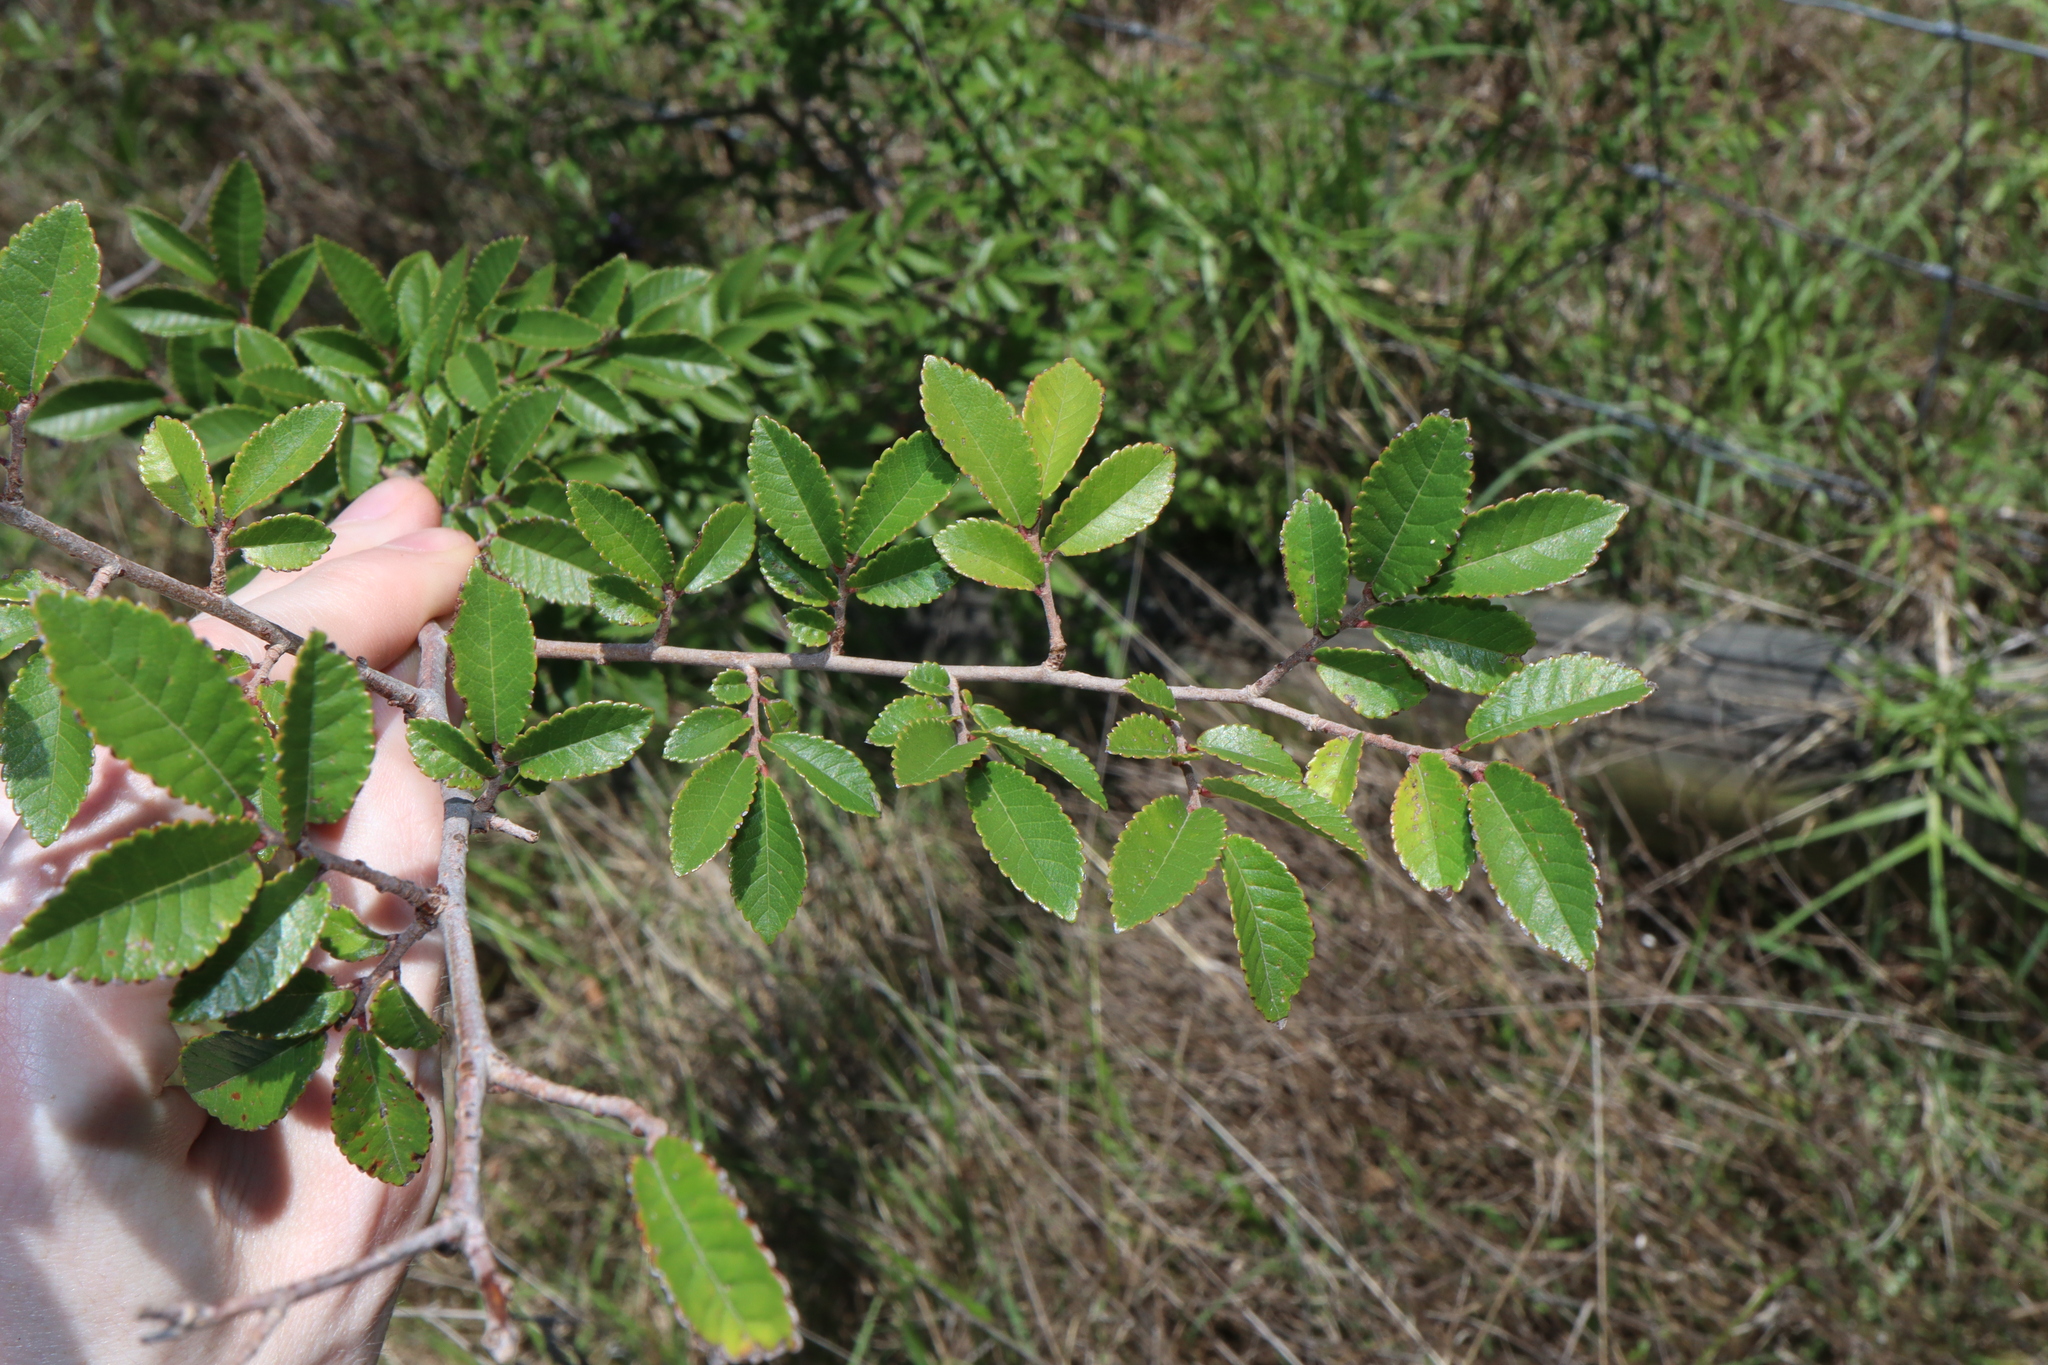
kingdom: Plantae
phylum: Tracheophyta
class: Magnoliopsida
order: Rosales
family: Ulmaceae
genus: Ulmus
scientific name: Ulmus parvifolia
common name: Chinese elm
